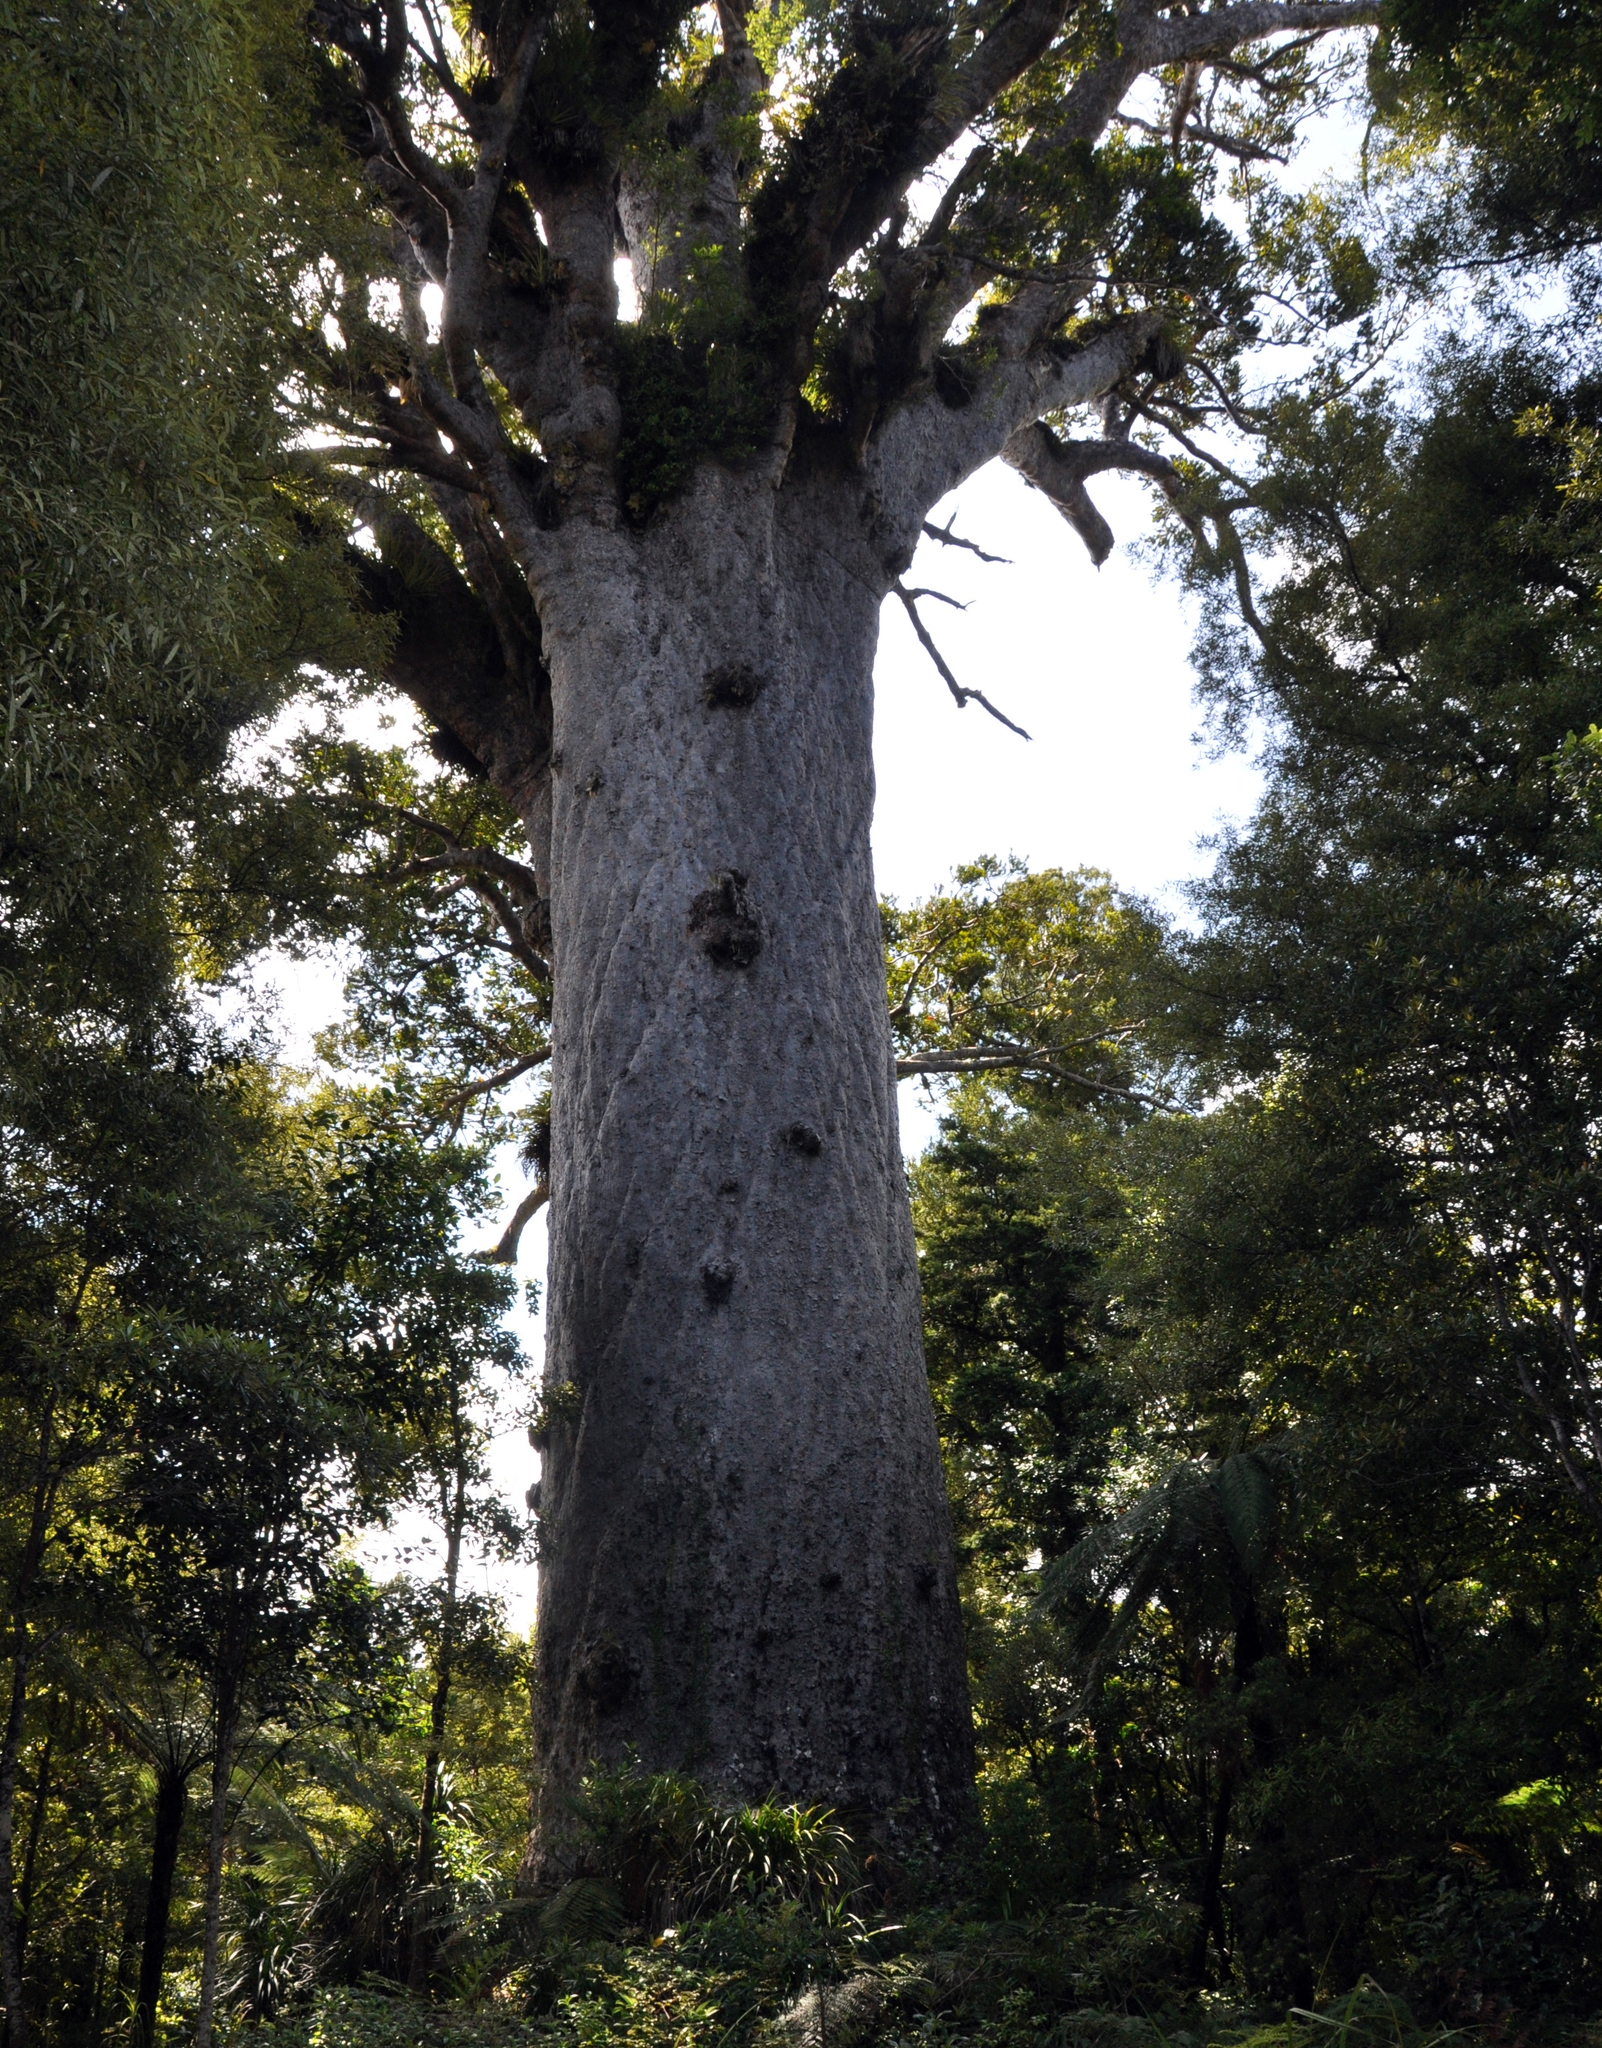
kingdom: Plantae
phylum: Tracheophyta
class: Pinopsida
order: Pinales
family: Araucariaceae
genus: Agathis
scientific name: Agathis australis
